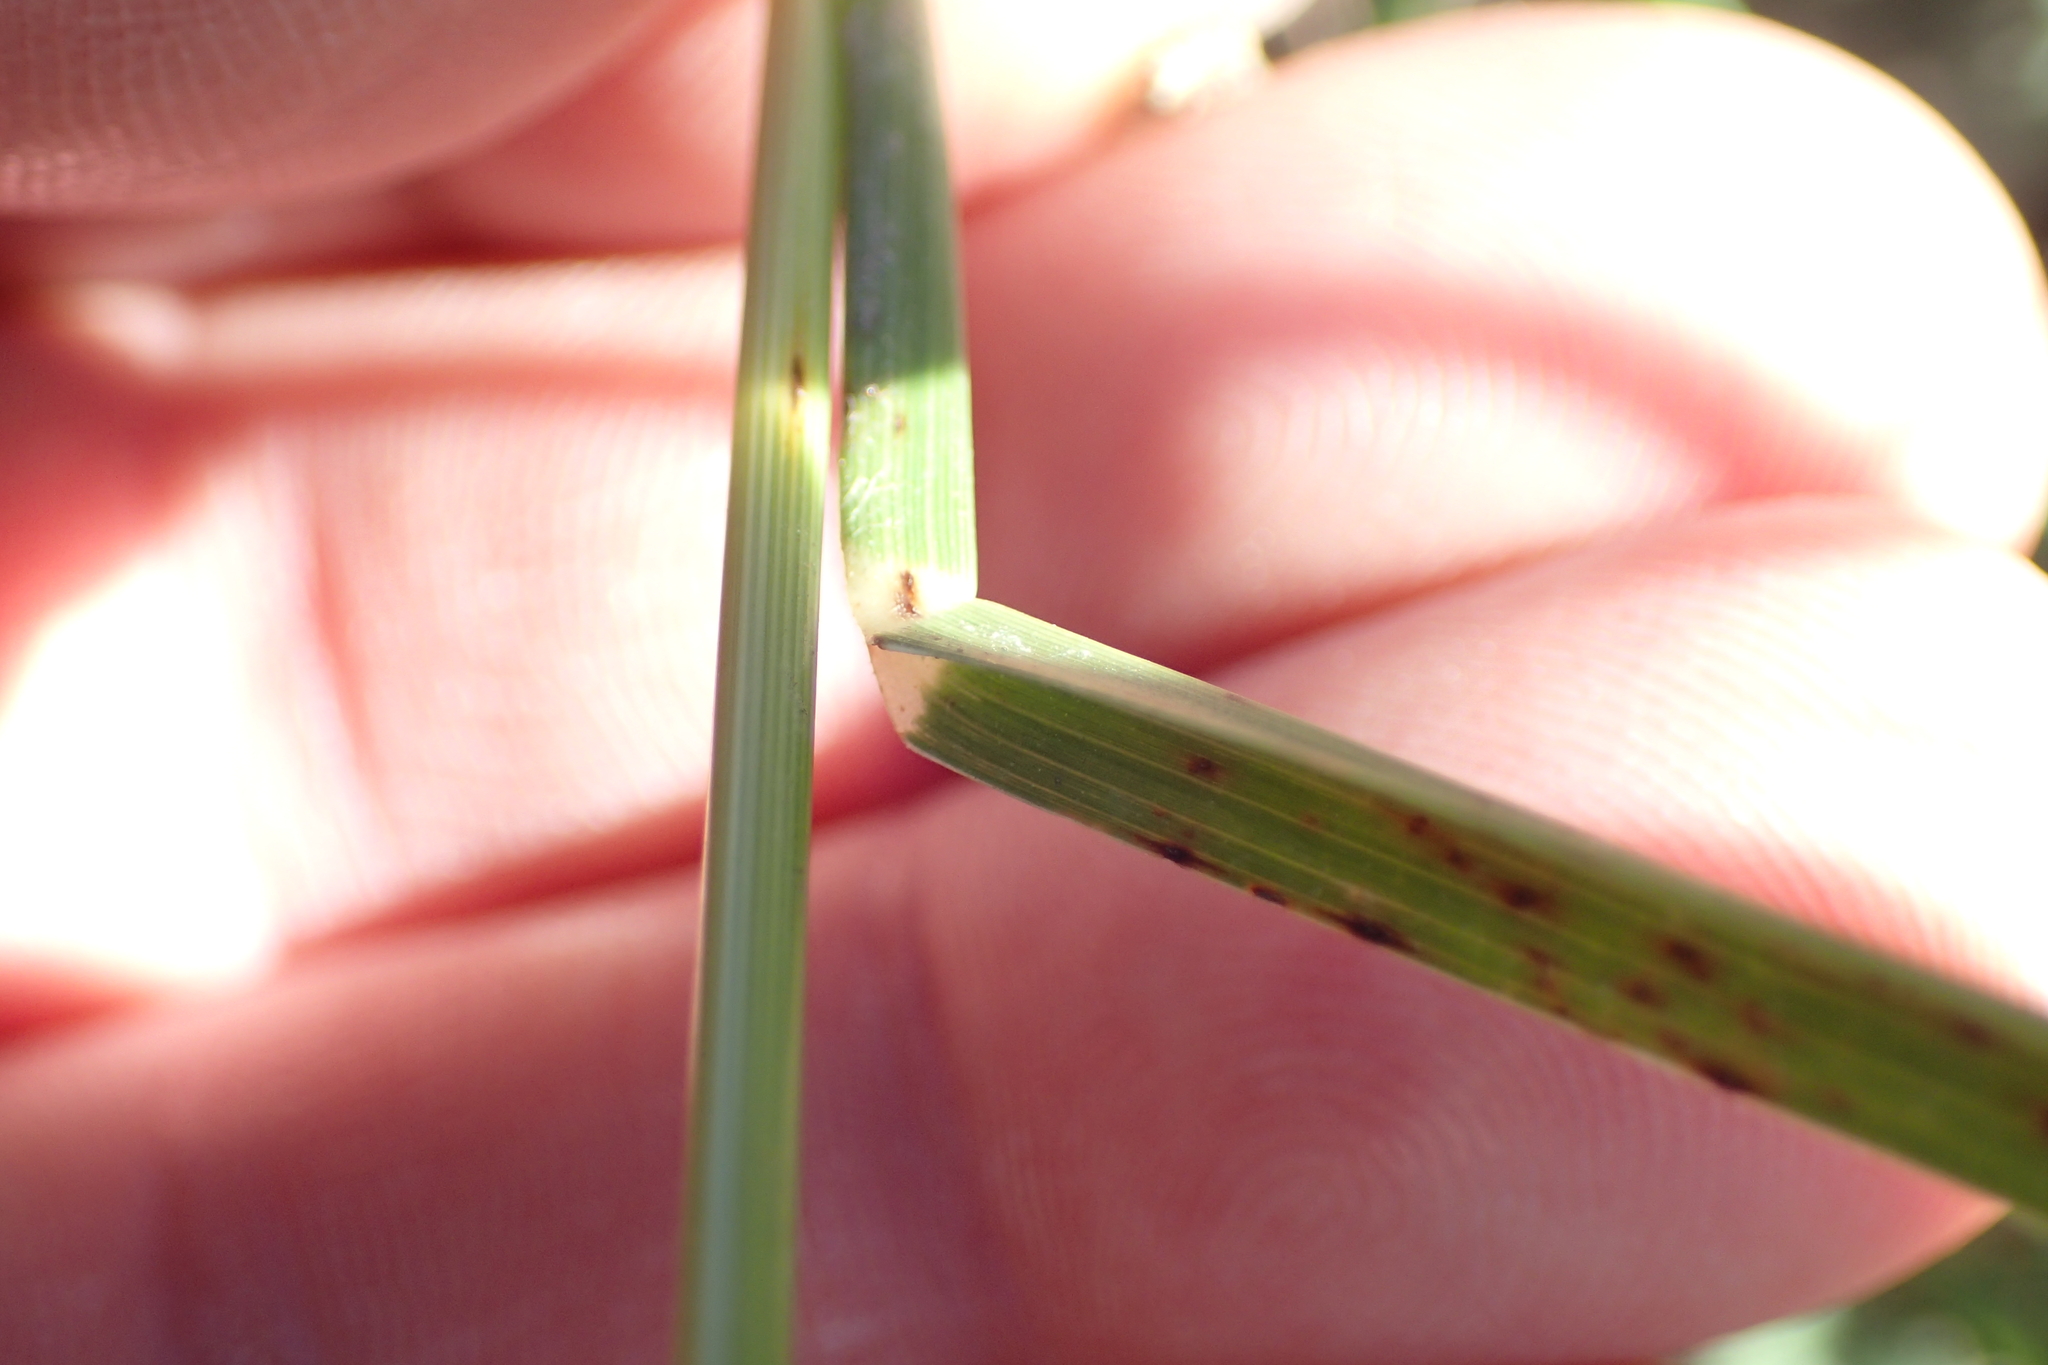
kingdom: Plantae
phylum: Tracheophyta
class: Liliopsida
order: Poales
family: Poaceae
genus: Eleusine
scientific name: Eleusine tristachya
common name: American yard-grass
